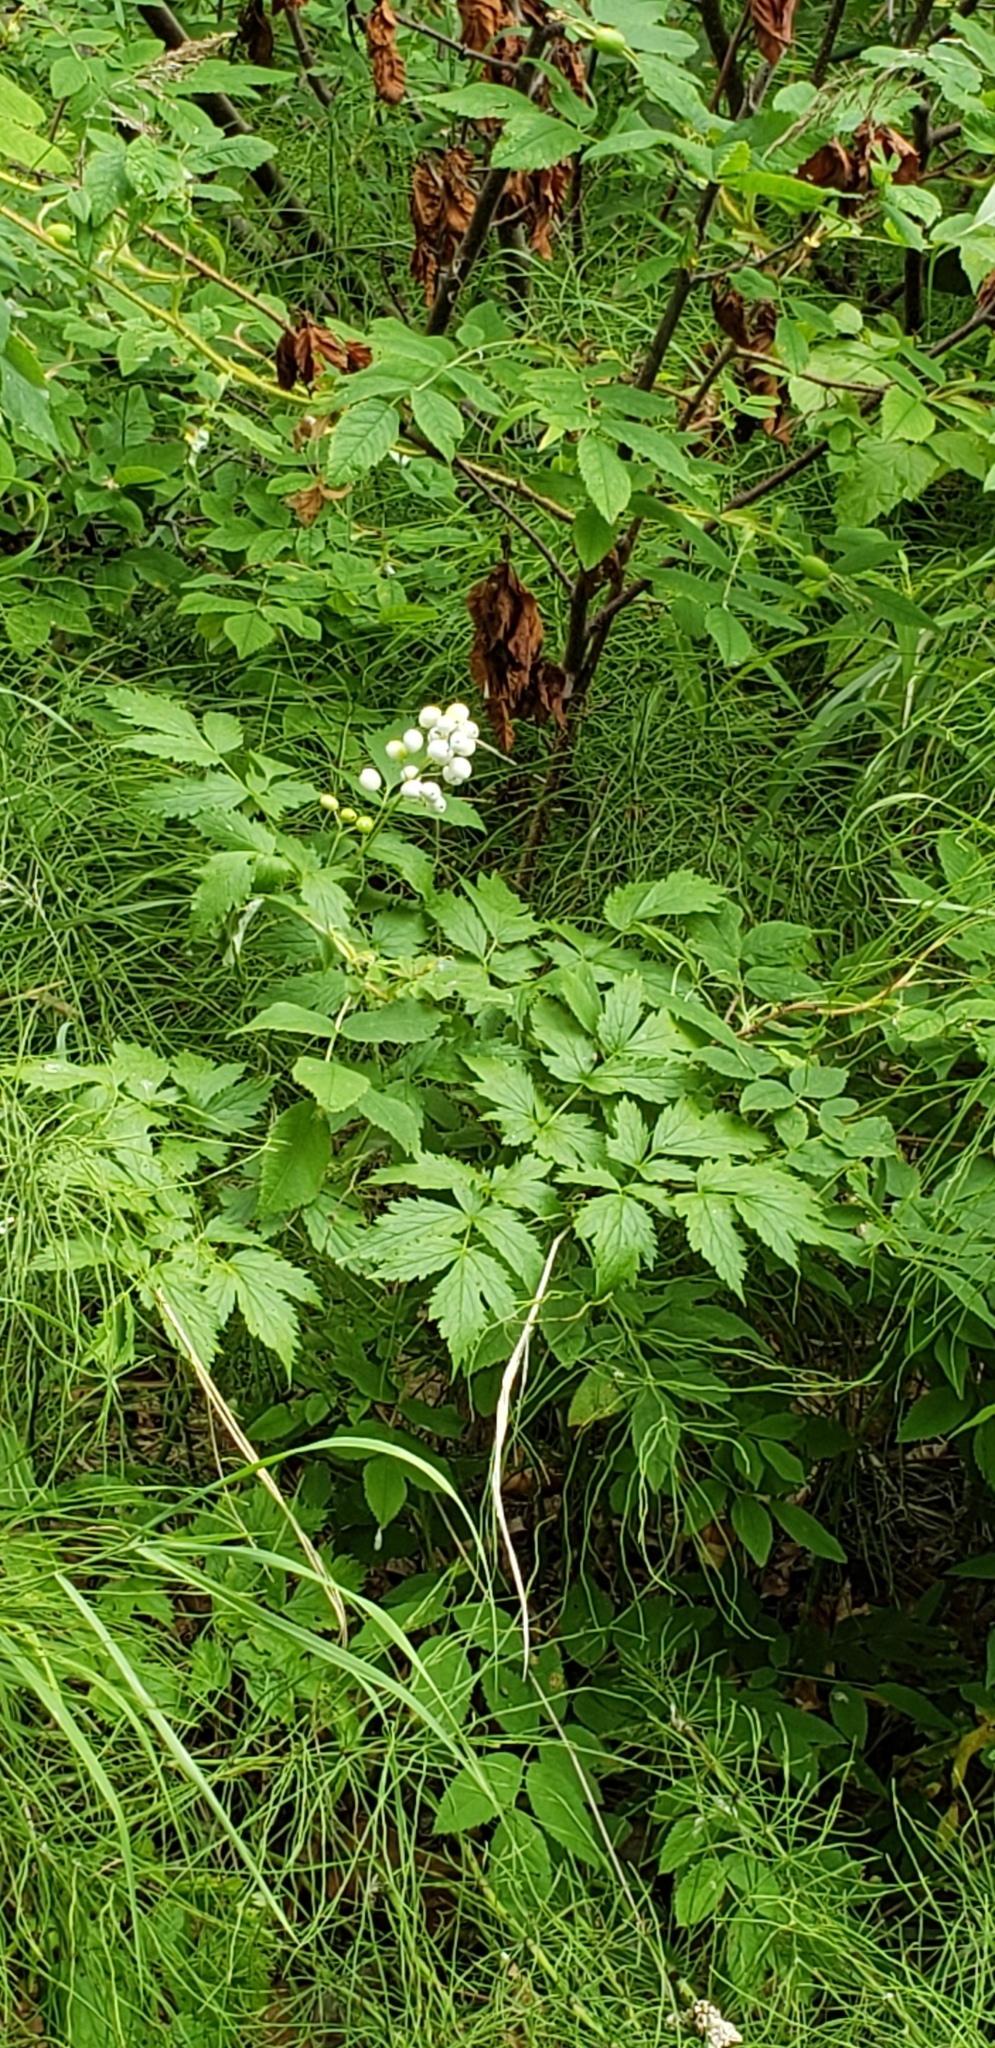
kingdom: Plantae
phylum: Tracheophyta
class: Magnoliopsida
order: Ranunculales
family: Ranunculaceae
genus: Actaea
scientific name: Actaea rubra
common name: Red baneberry
